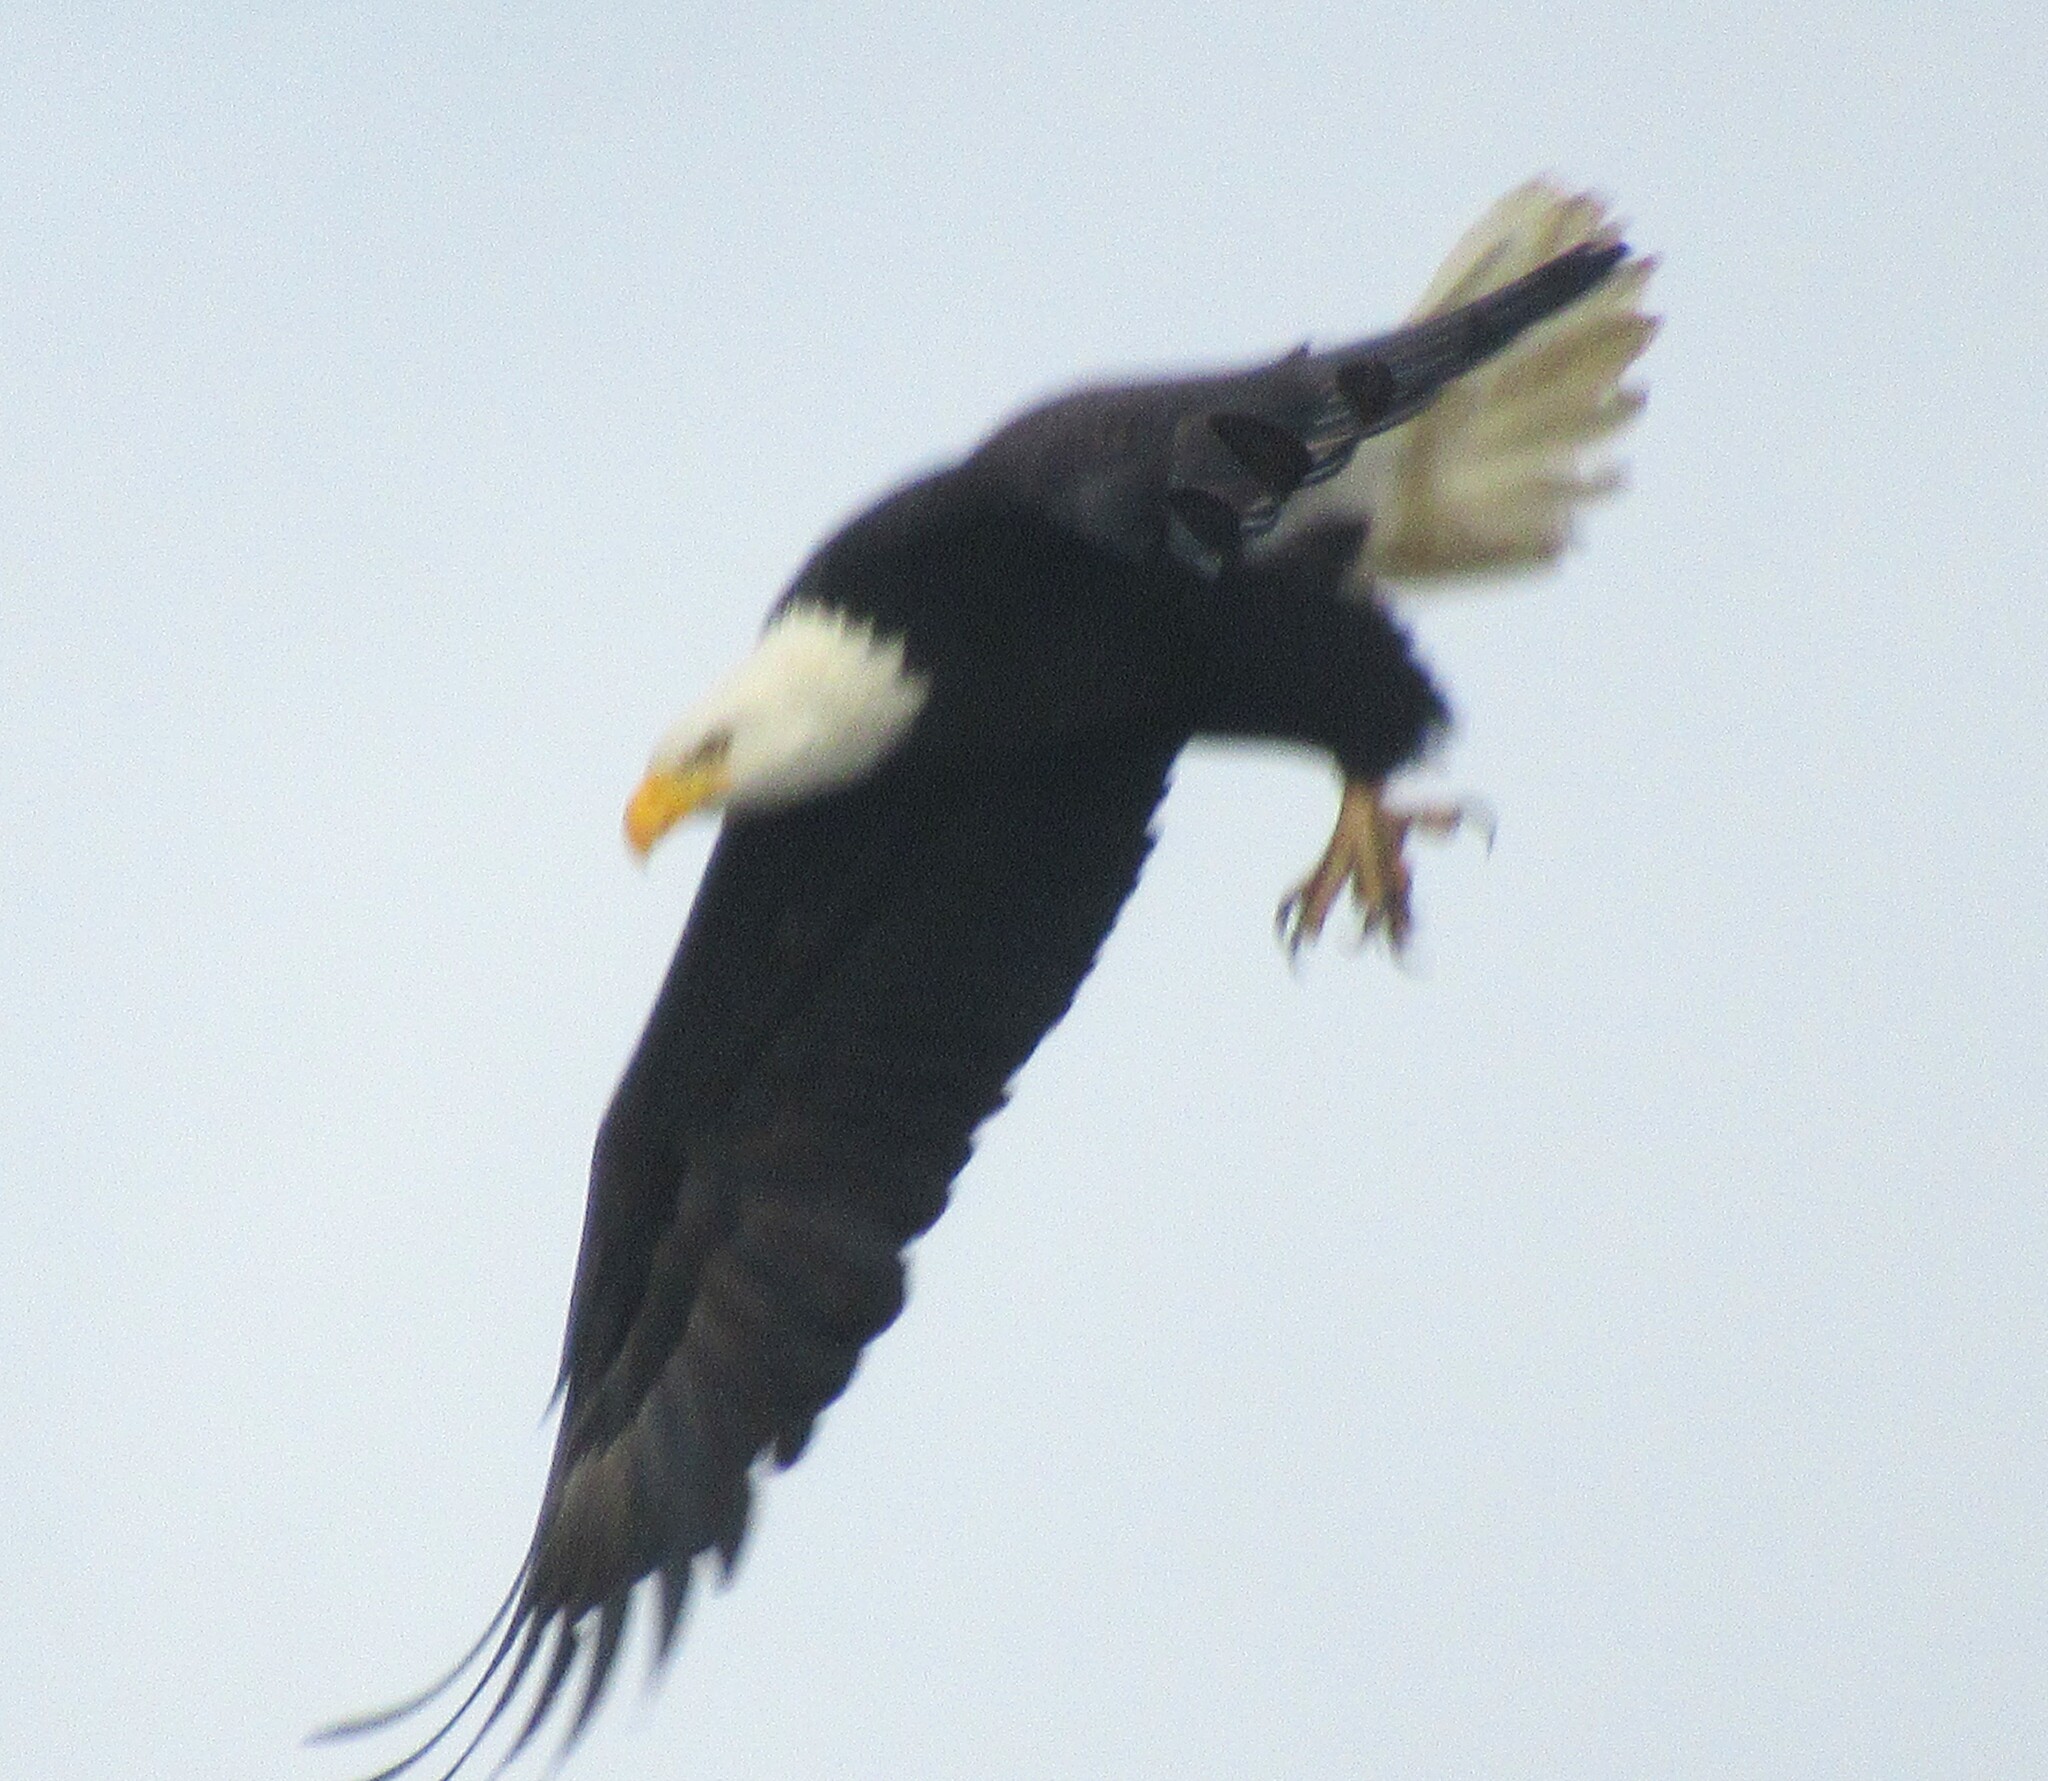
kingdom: Animalia
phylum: Chordata
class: Aves
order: Accipitriformes
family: Accipitridae
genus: Haliaeetus
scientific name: Haliaeetus leucocephalus
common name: Bald eagle
